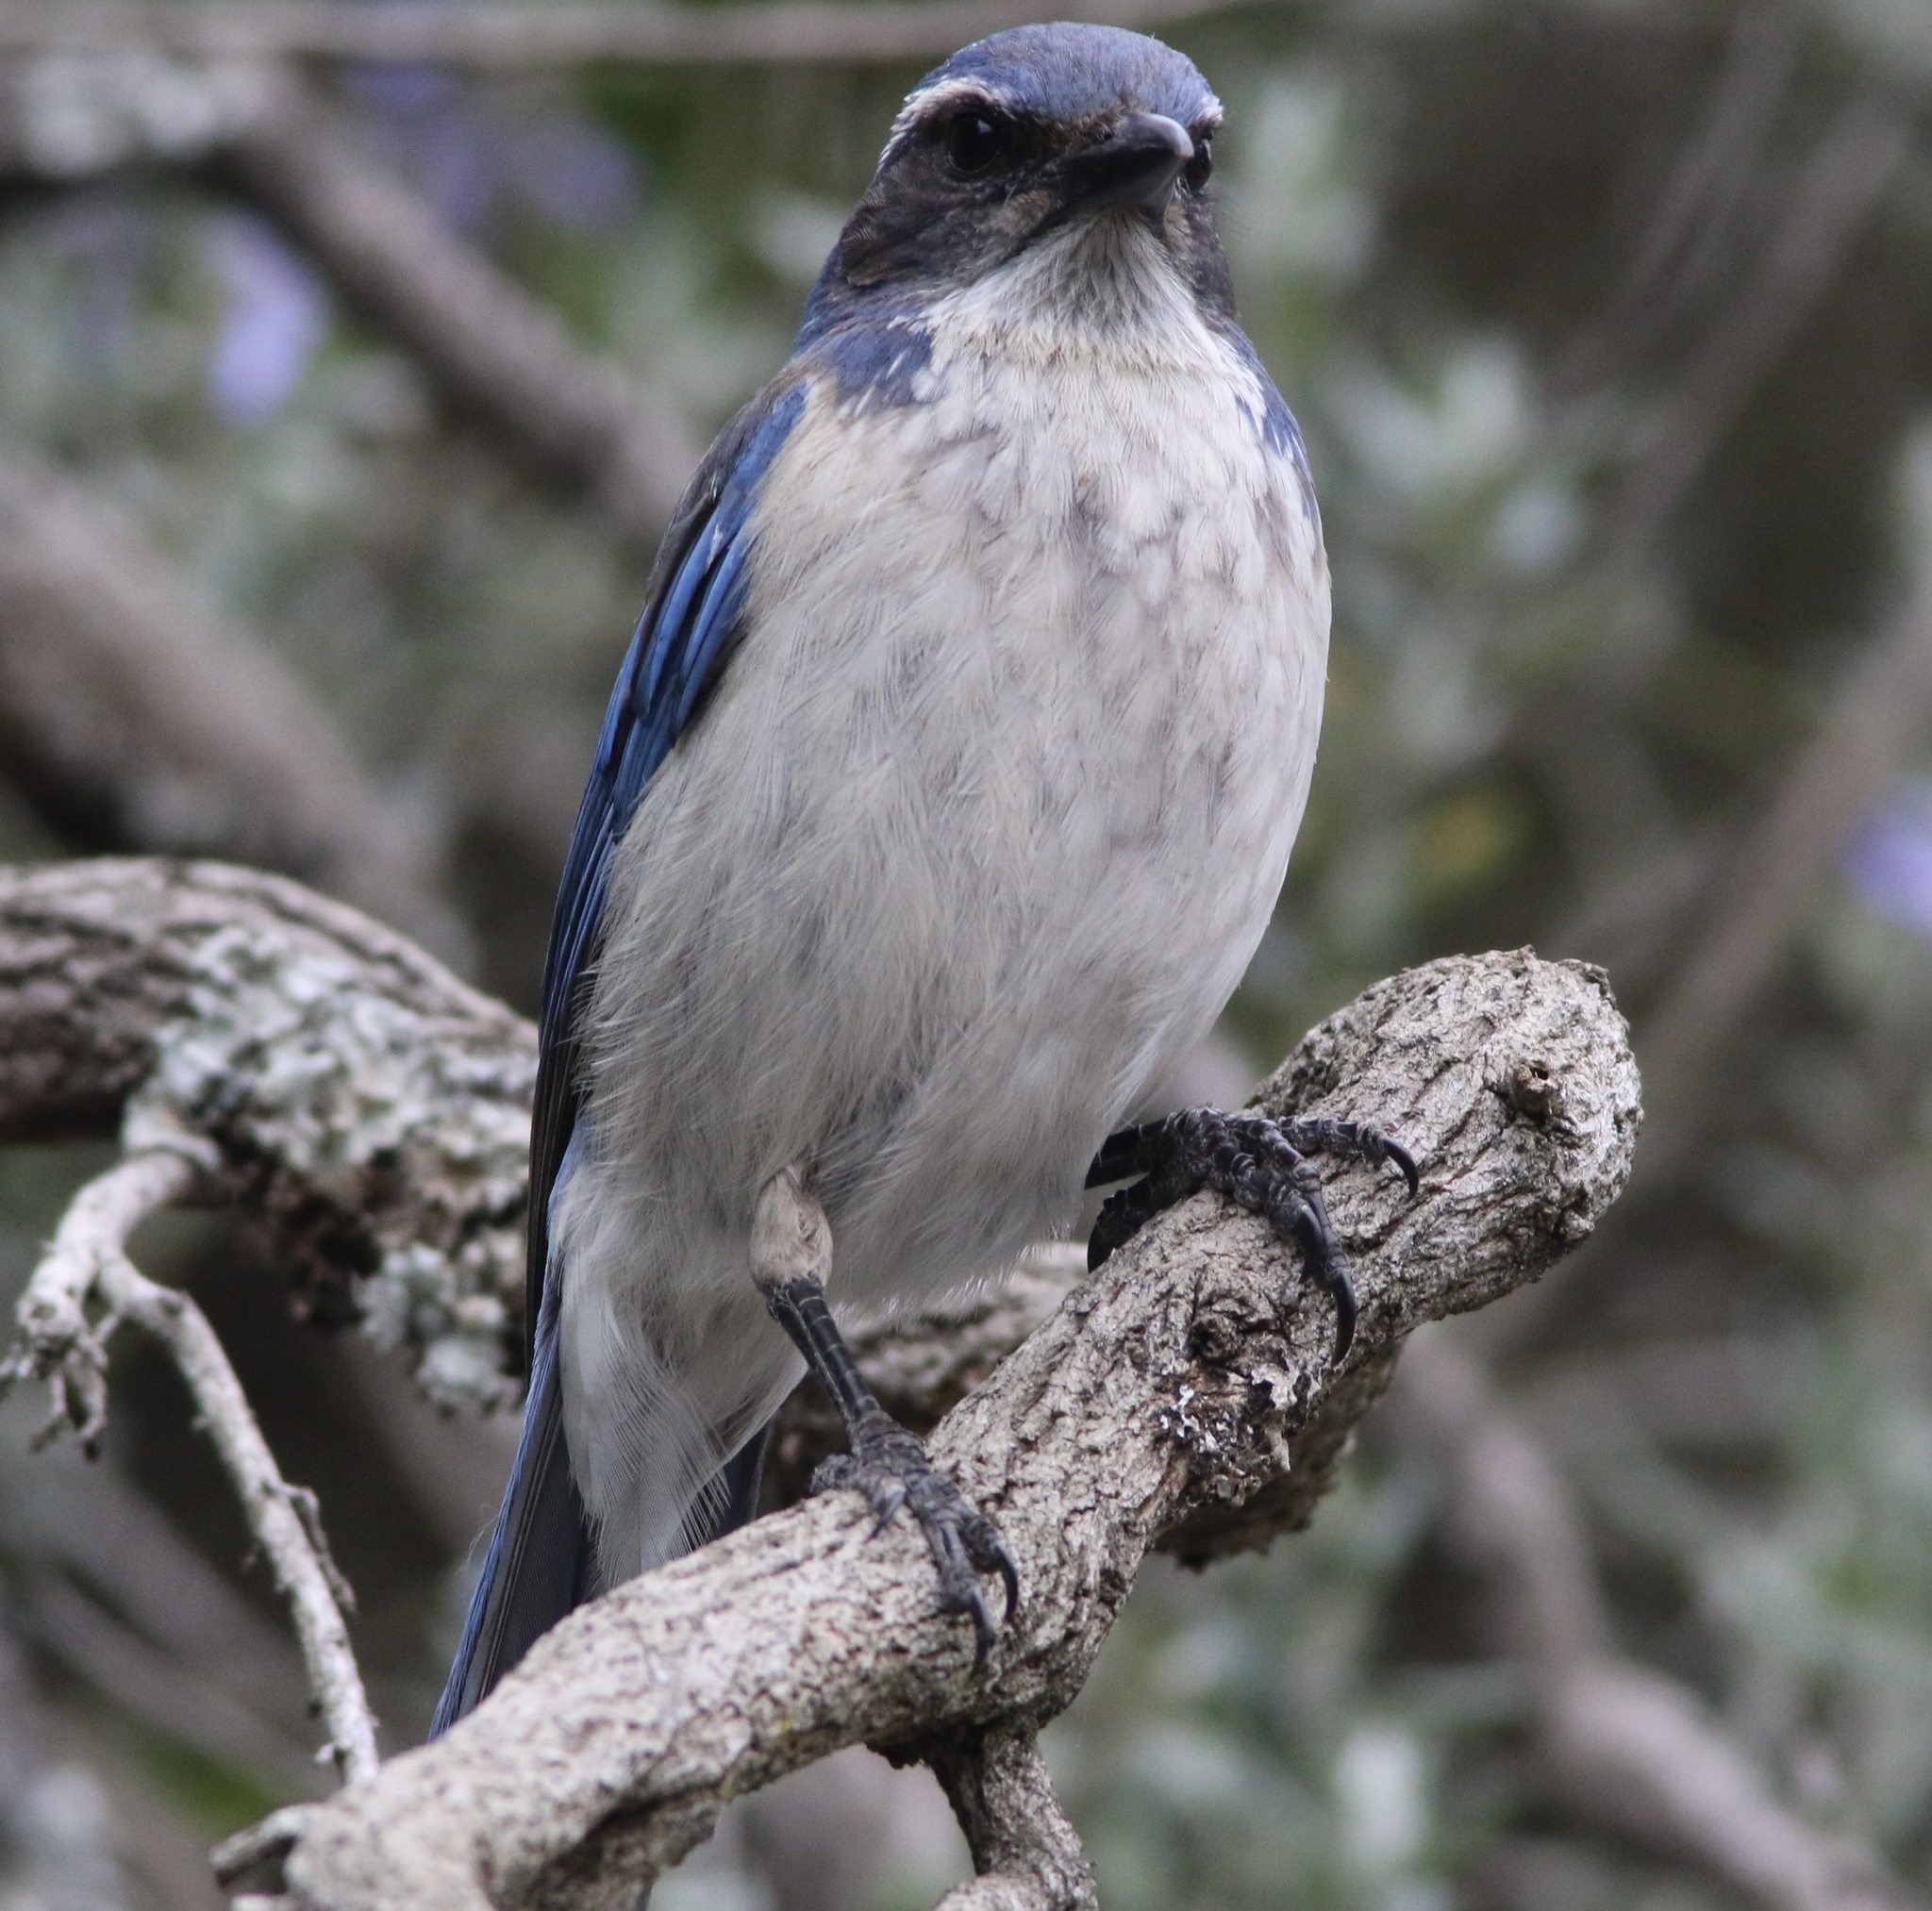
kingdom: Animalia
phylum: Chordata
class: Aves
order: Passeriformes
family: Corvidae
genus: Aphelocoma
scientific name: Aphelocoma californica
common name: California scrub-jay
